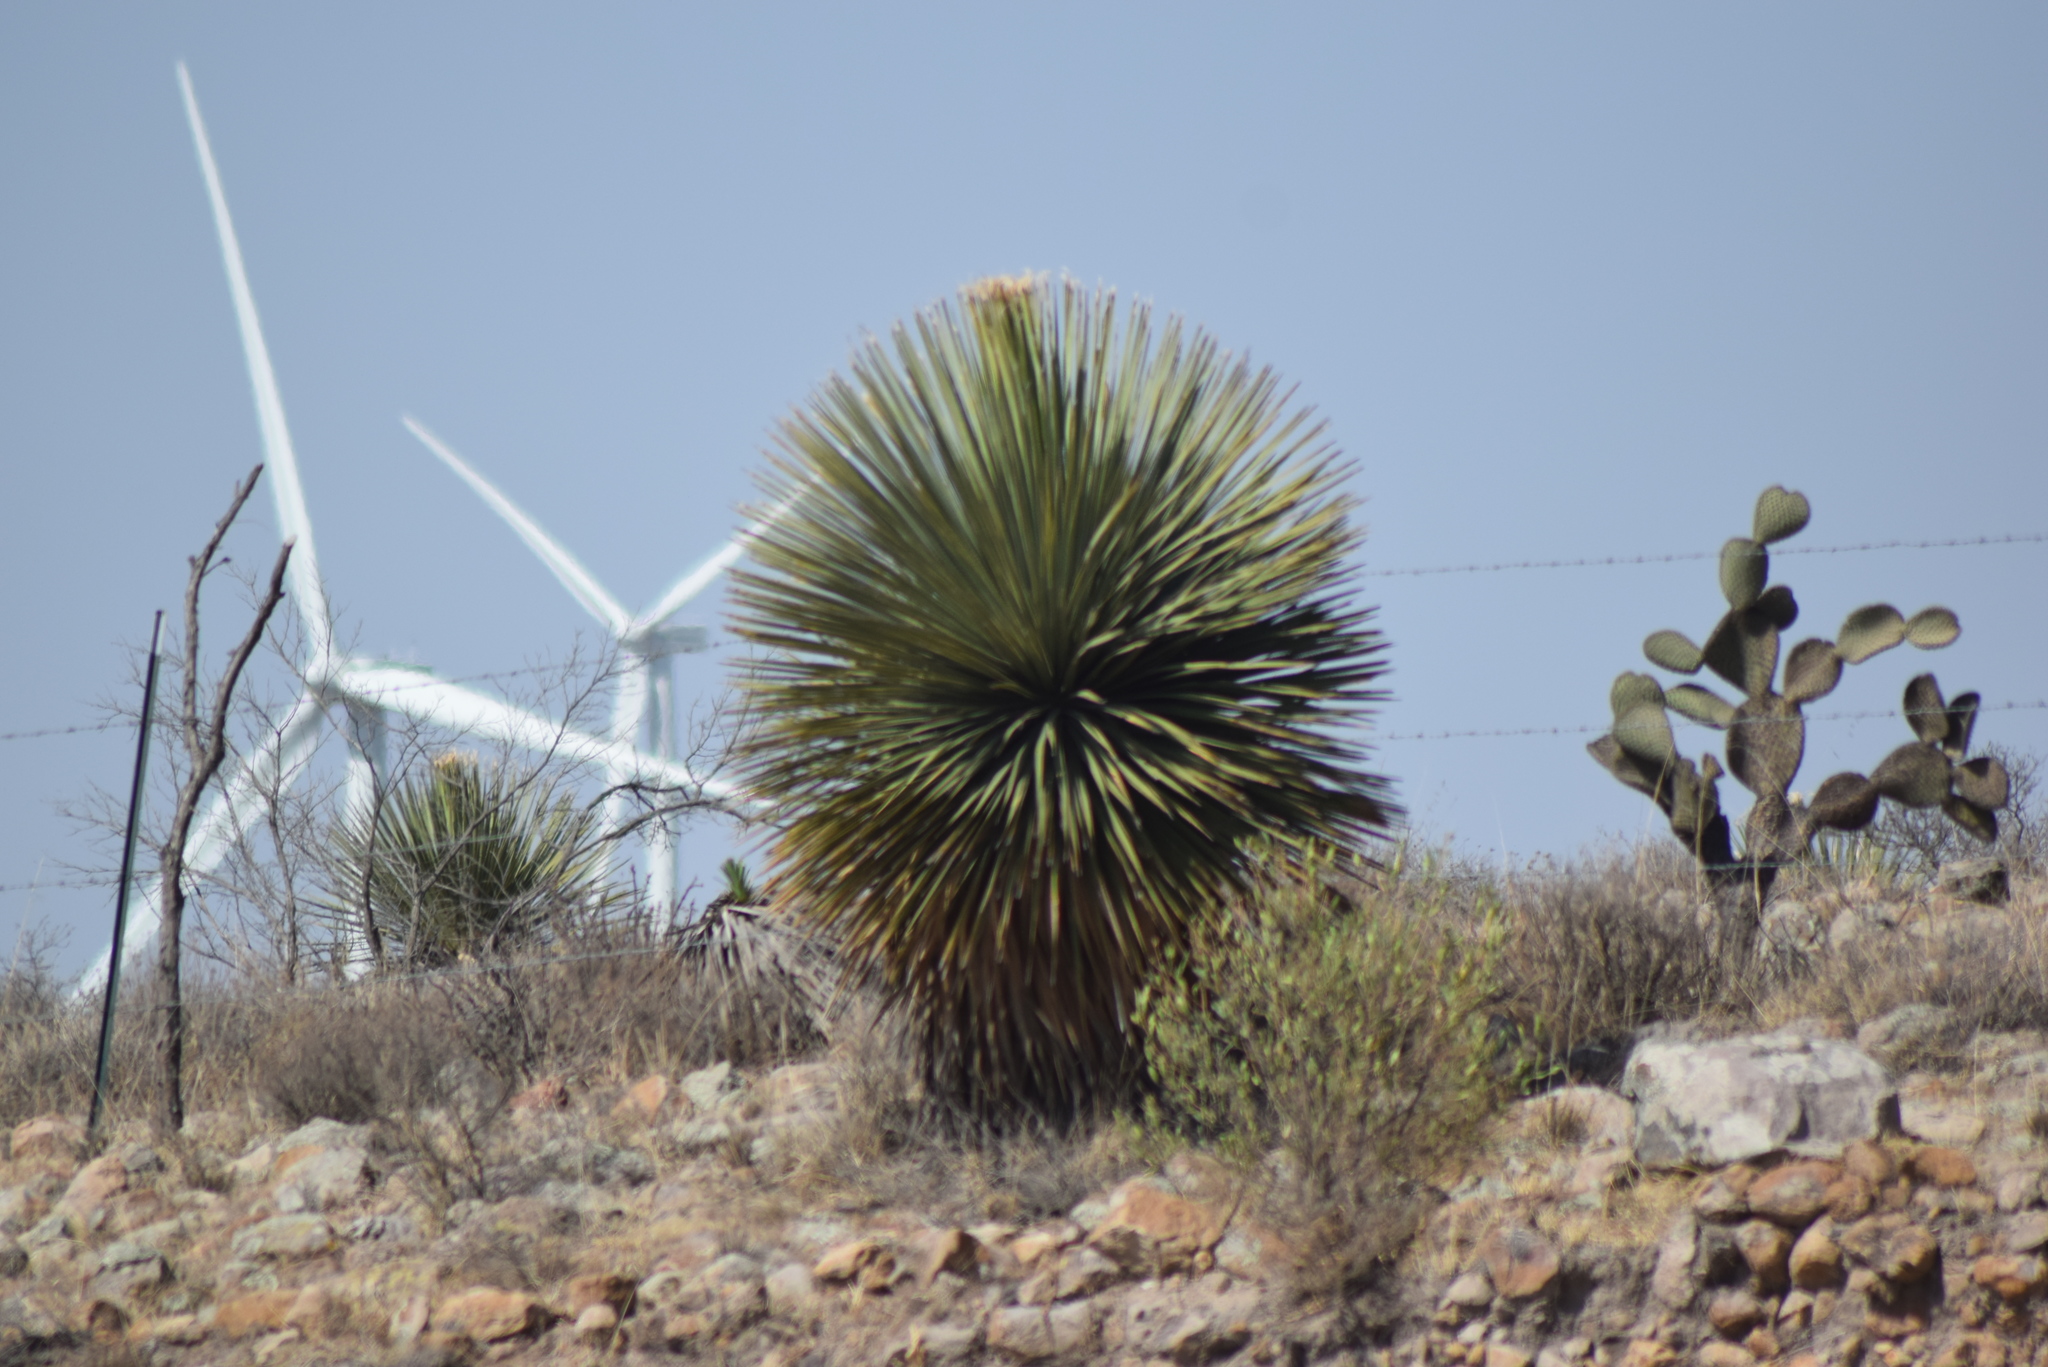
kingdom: Plantae
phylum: Tracheophyta
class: Liliopsida
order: Asparagales
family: Asparagaceae
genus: Dasylirion
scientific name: Dasylirion acrotrichum
